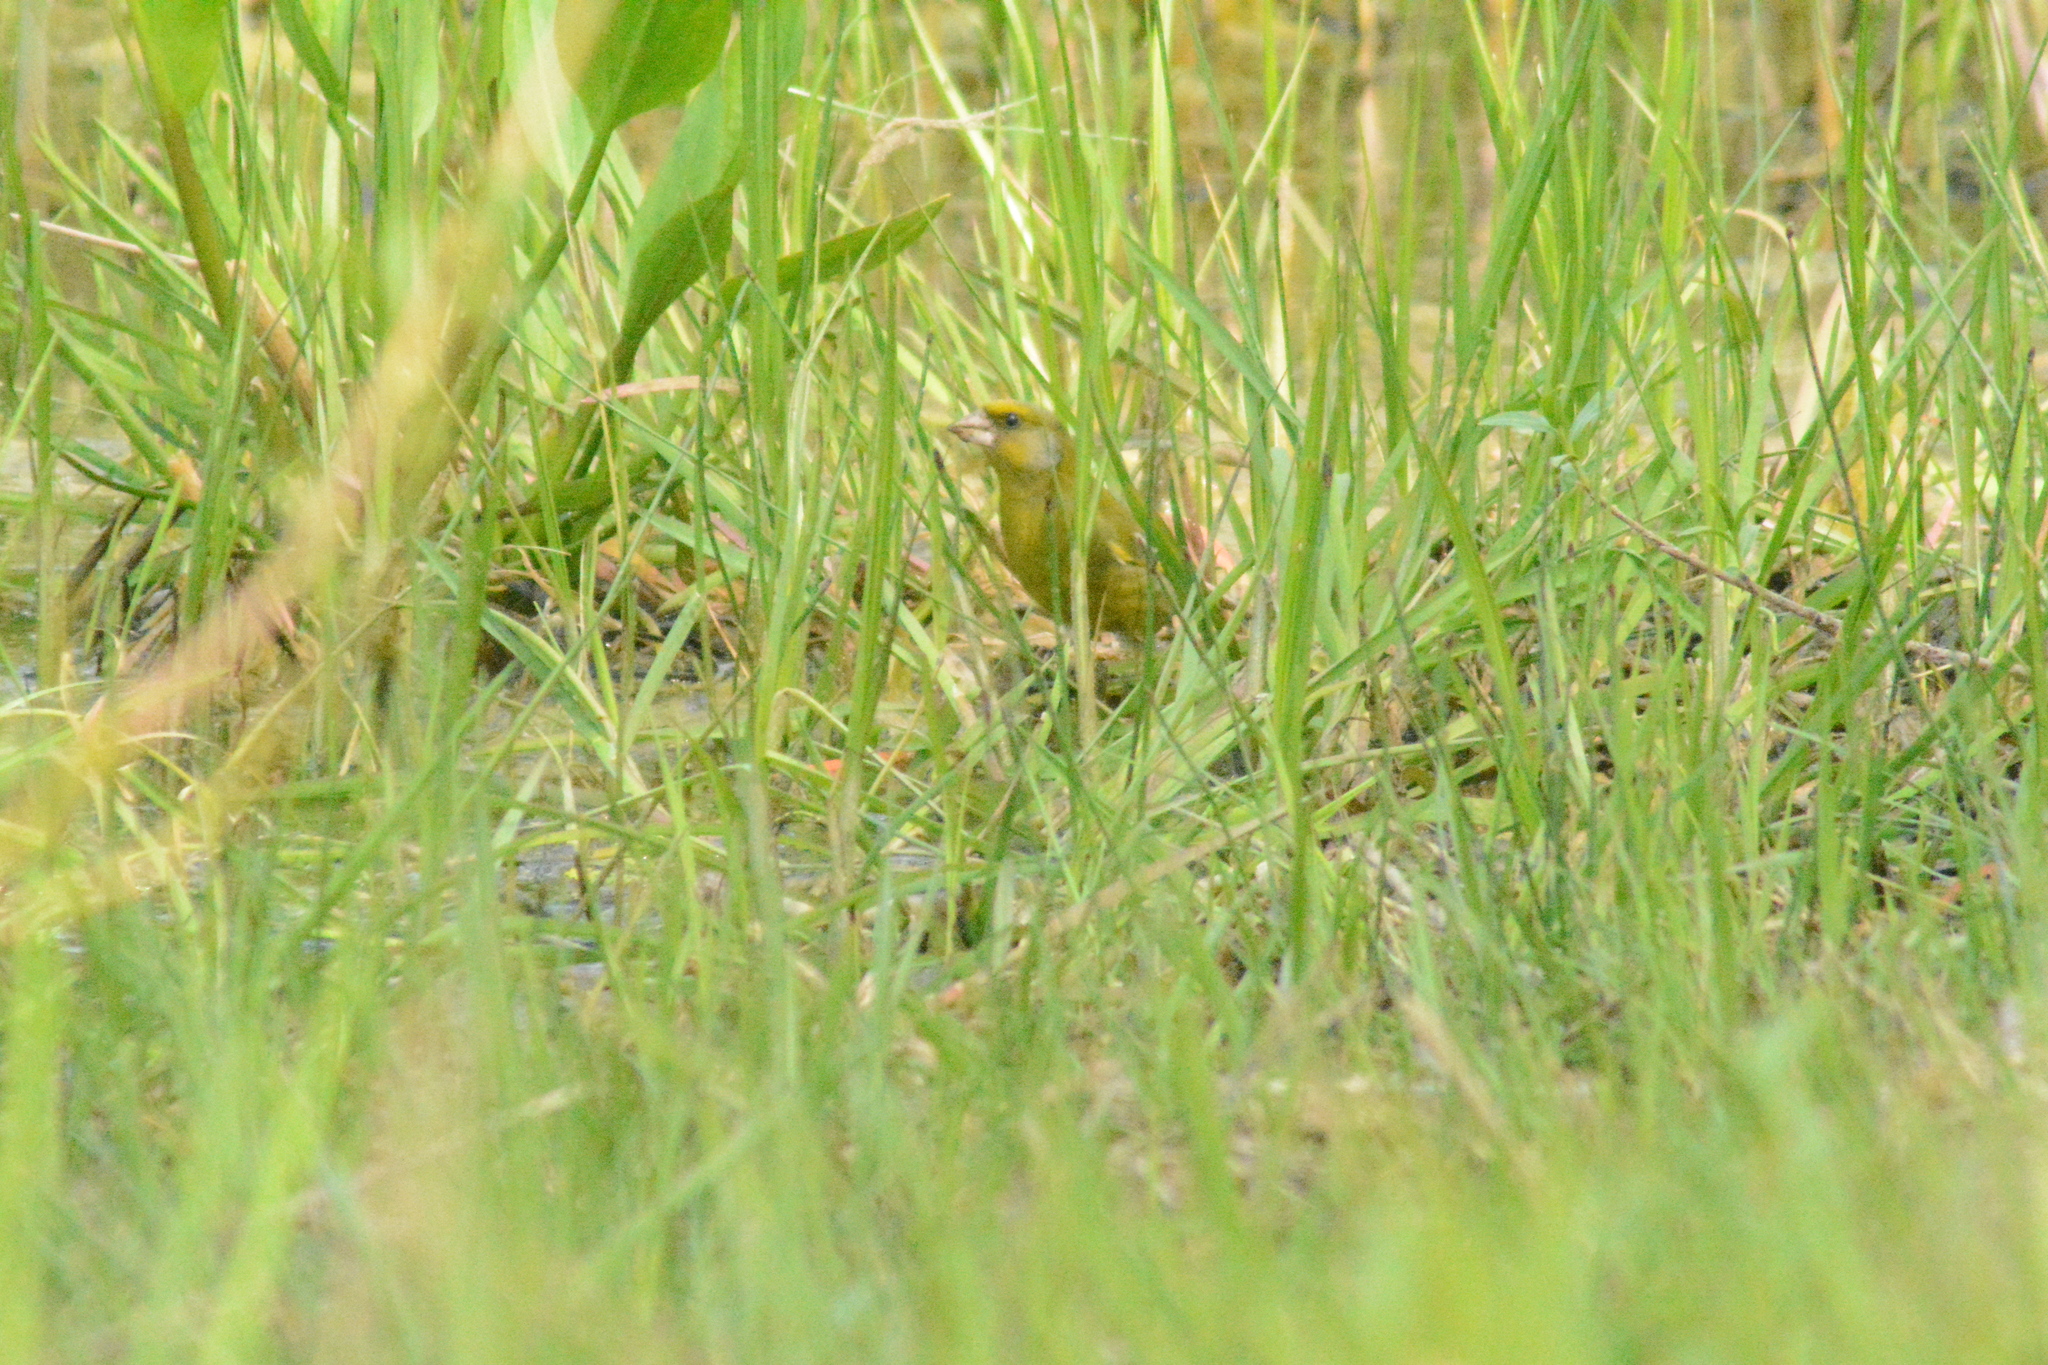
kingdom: Plantae
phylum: Tracheophyta
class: Liliopsida
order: Poales
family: Poaceae
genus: Chloris
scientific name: Chloris chloris
